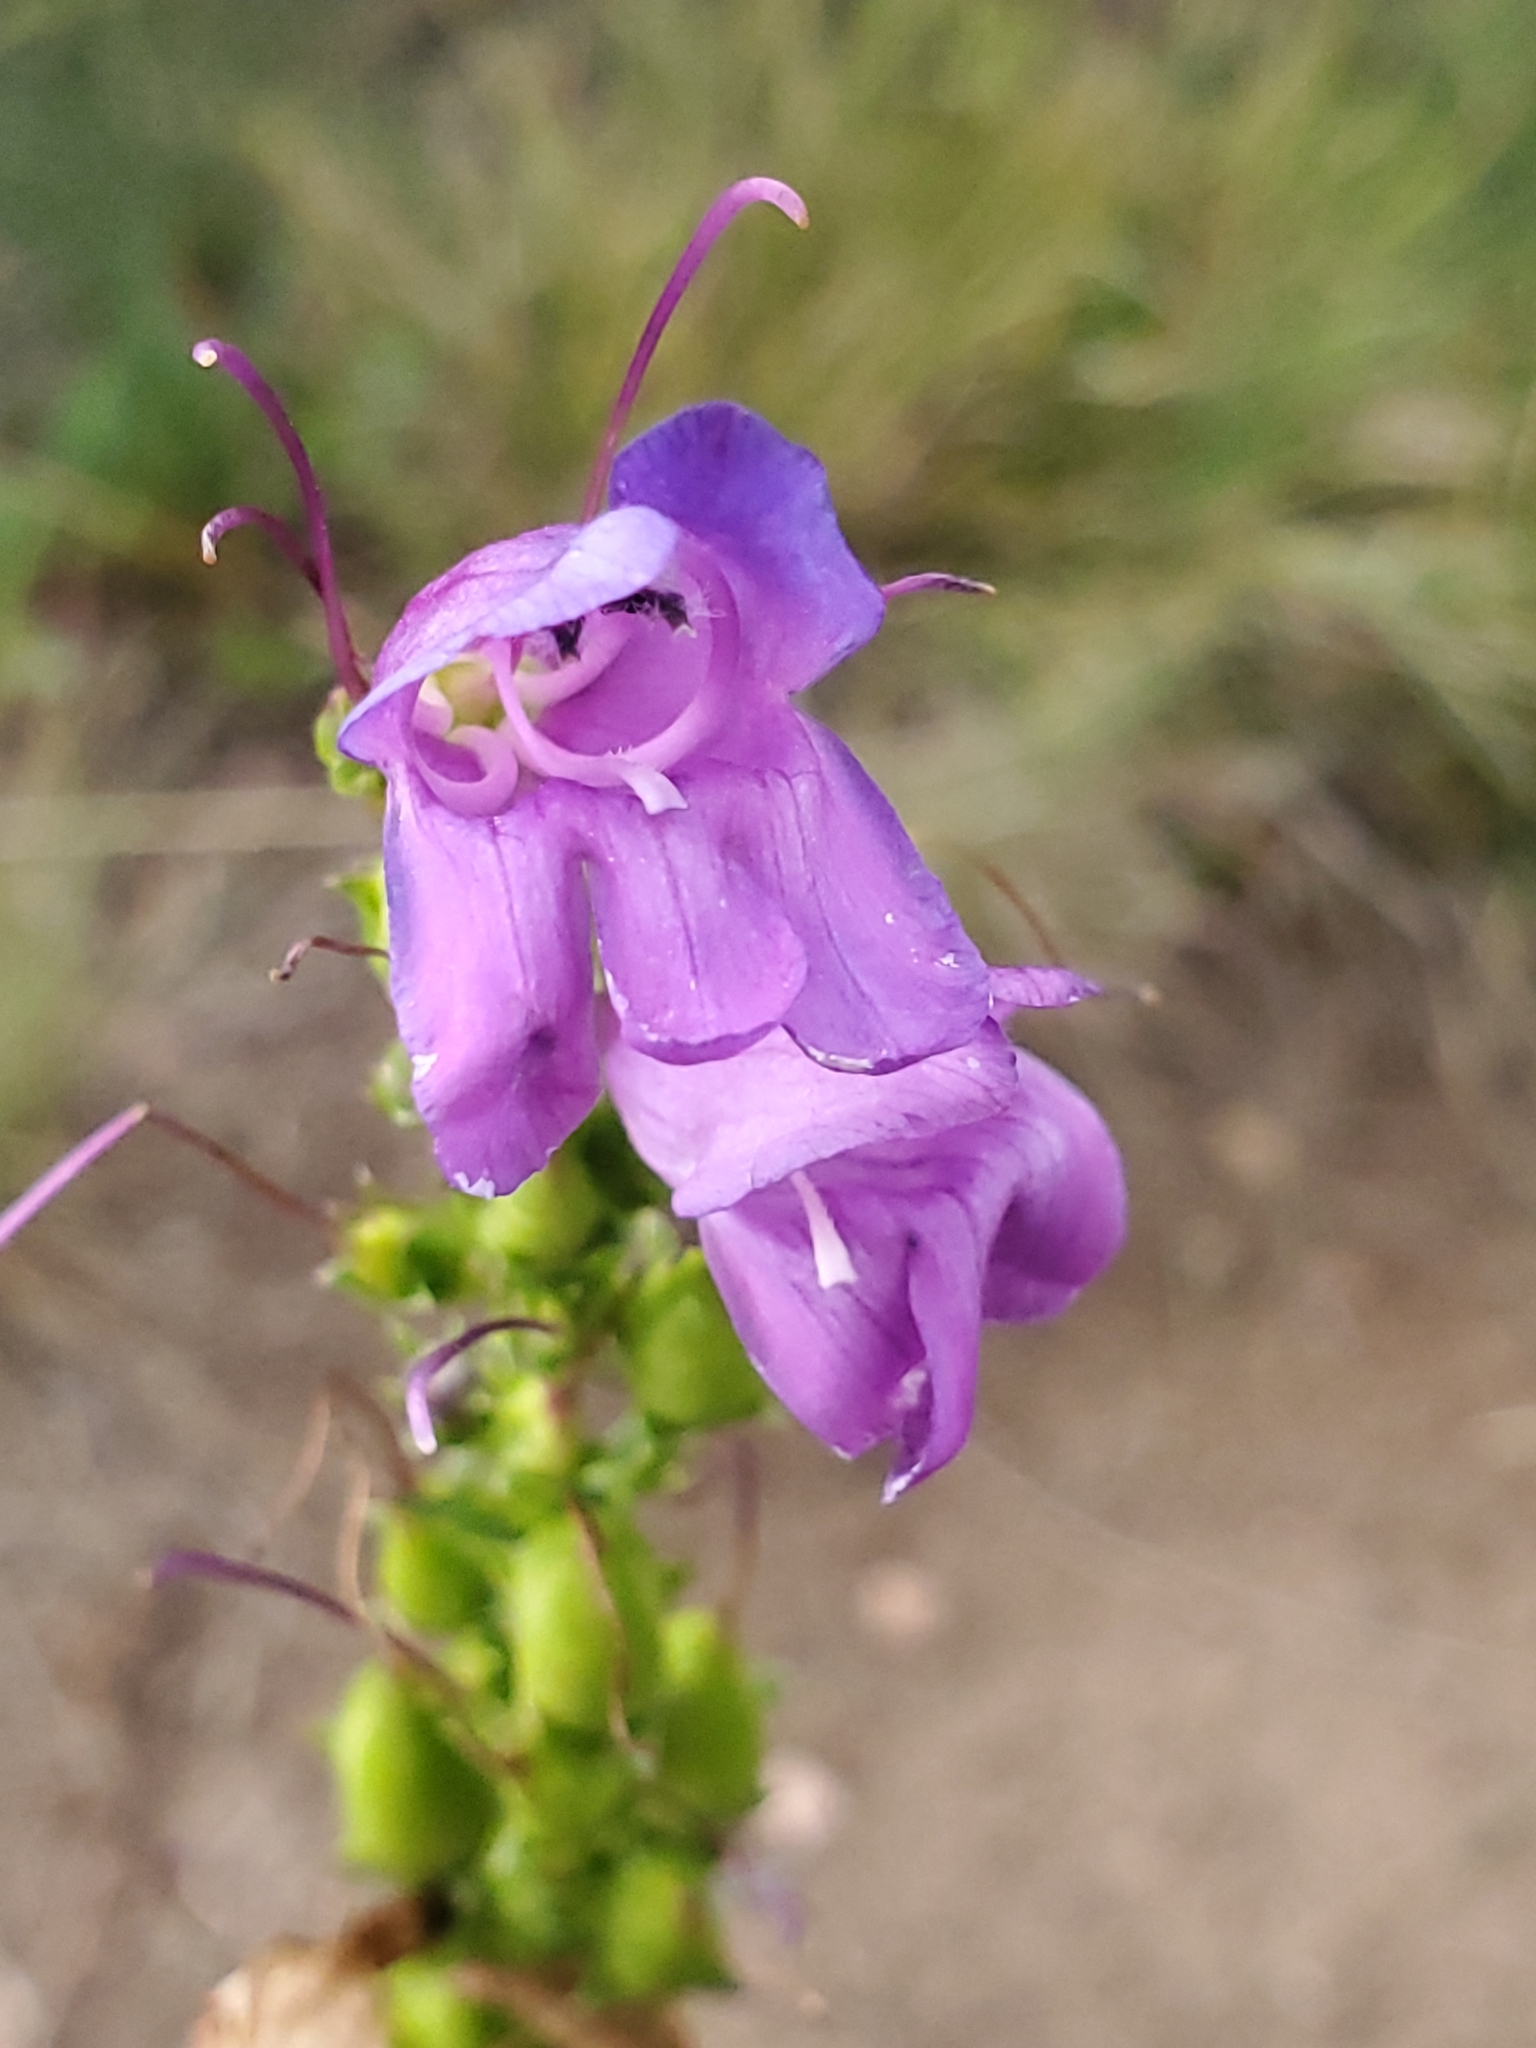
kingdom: Plantae
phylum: Tracheophyta
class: Magnoliopsida
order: Lamiales
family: Plantaginaceae
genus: Penstemon
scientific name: Penstemon strictus
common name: Rocky mountain penstemon
